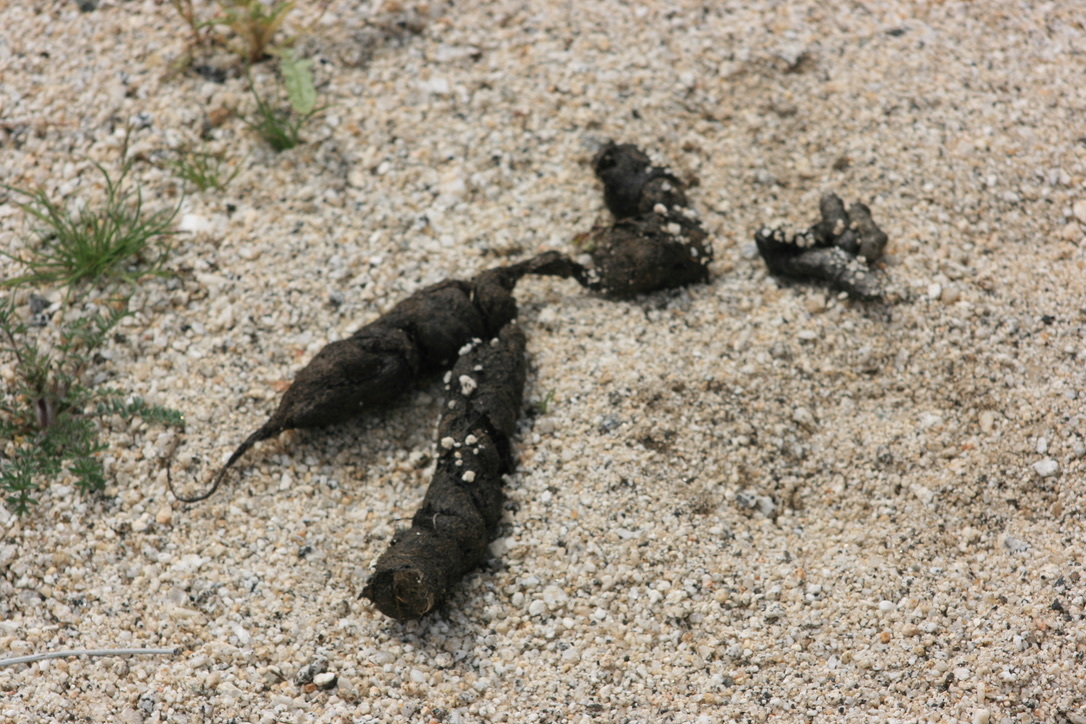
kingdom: Animalia
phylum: Chordata
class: Mammalia
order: Carnivora
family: Canidae
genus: Canis
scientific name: Canis latrans
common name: Coyote
